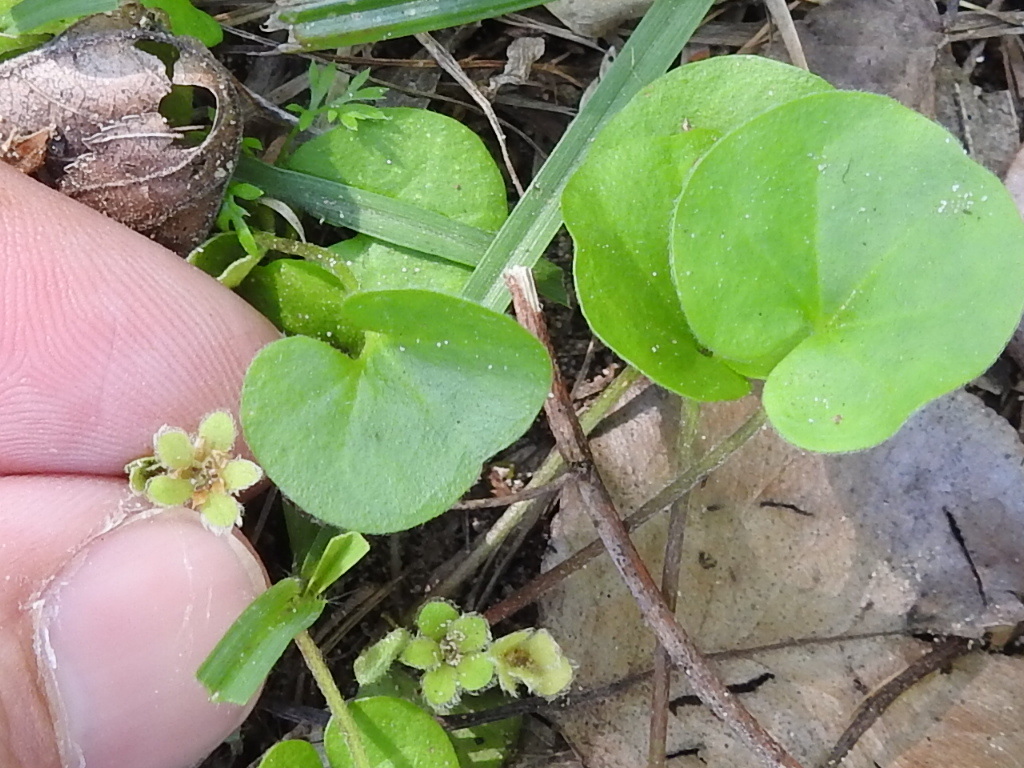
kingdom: Plantae
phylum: Tracheophyta
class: Magnoliopsida
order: Solanales
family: Convolvulaceae
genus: Dichondra
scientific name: Dichondra carolinensis
